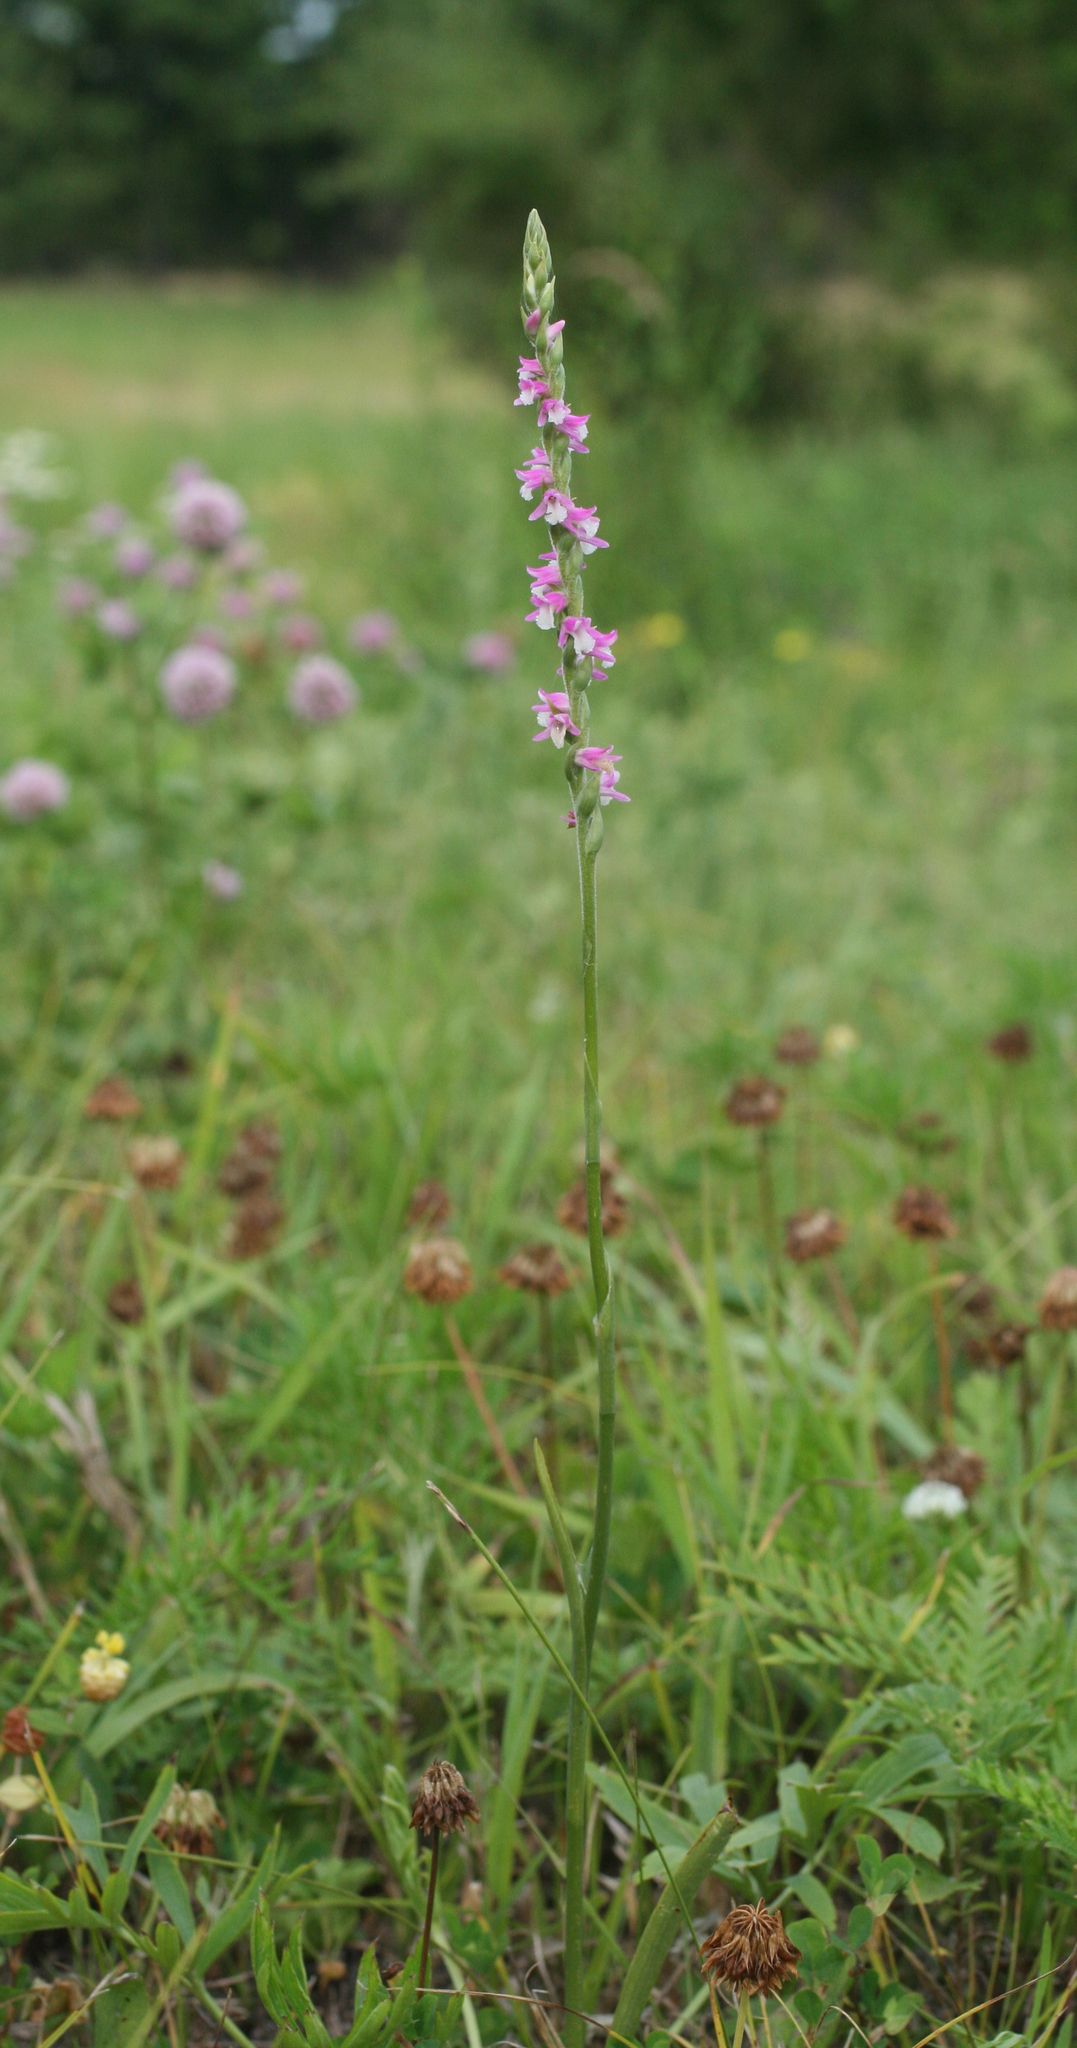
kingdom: Plantae
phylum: Tracheophyta
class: Liliopsida
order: Asparagales
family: Orchidaceae
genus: Spiranthes
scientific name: Spiranthes australis
